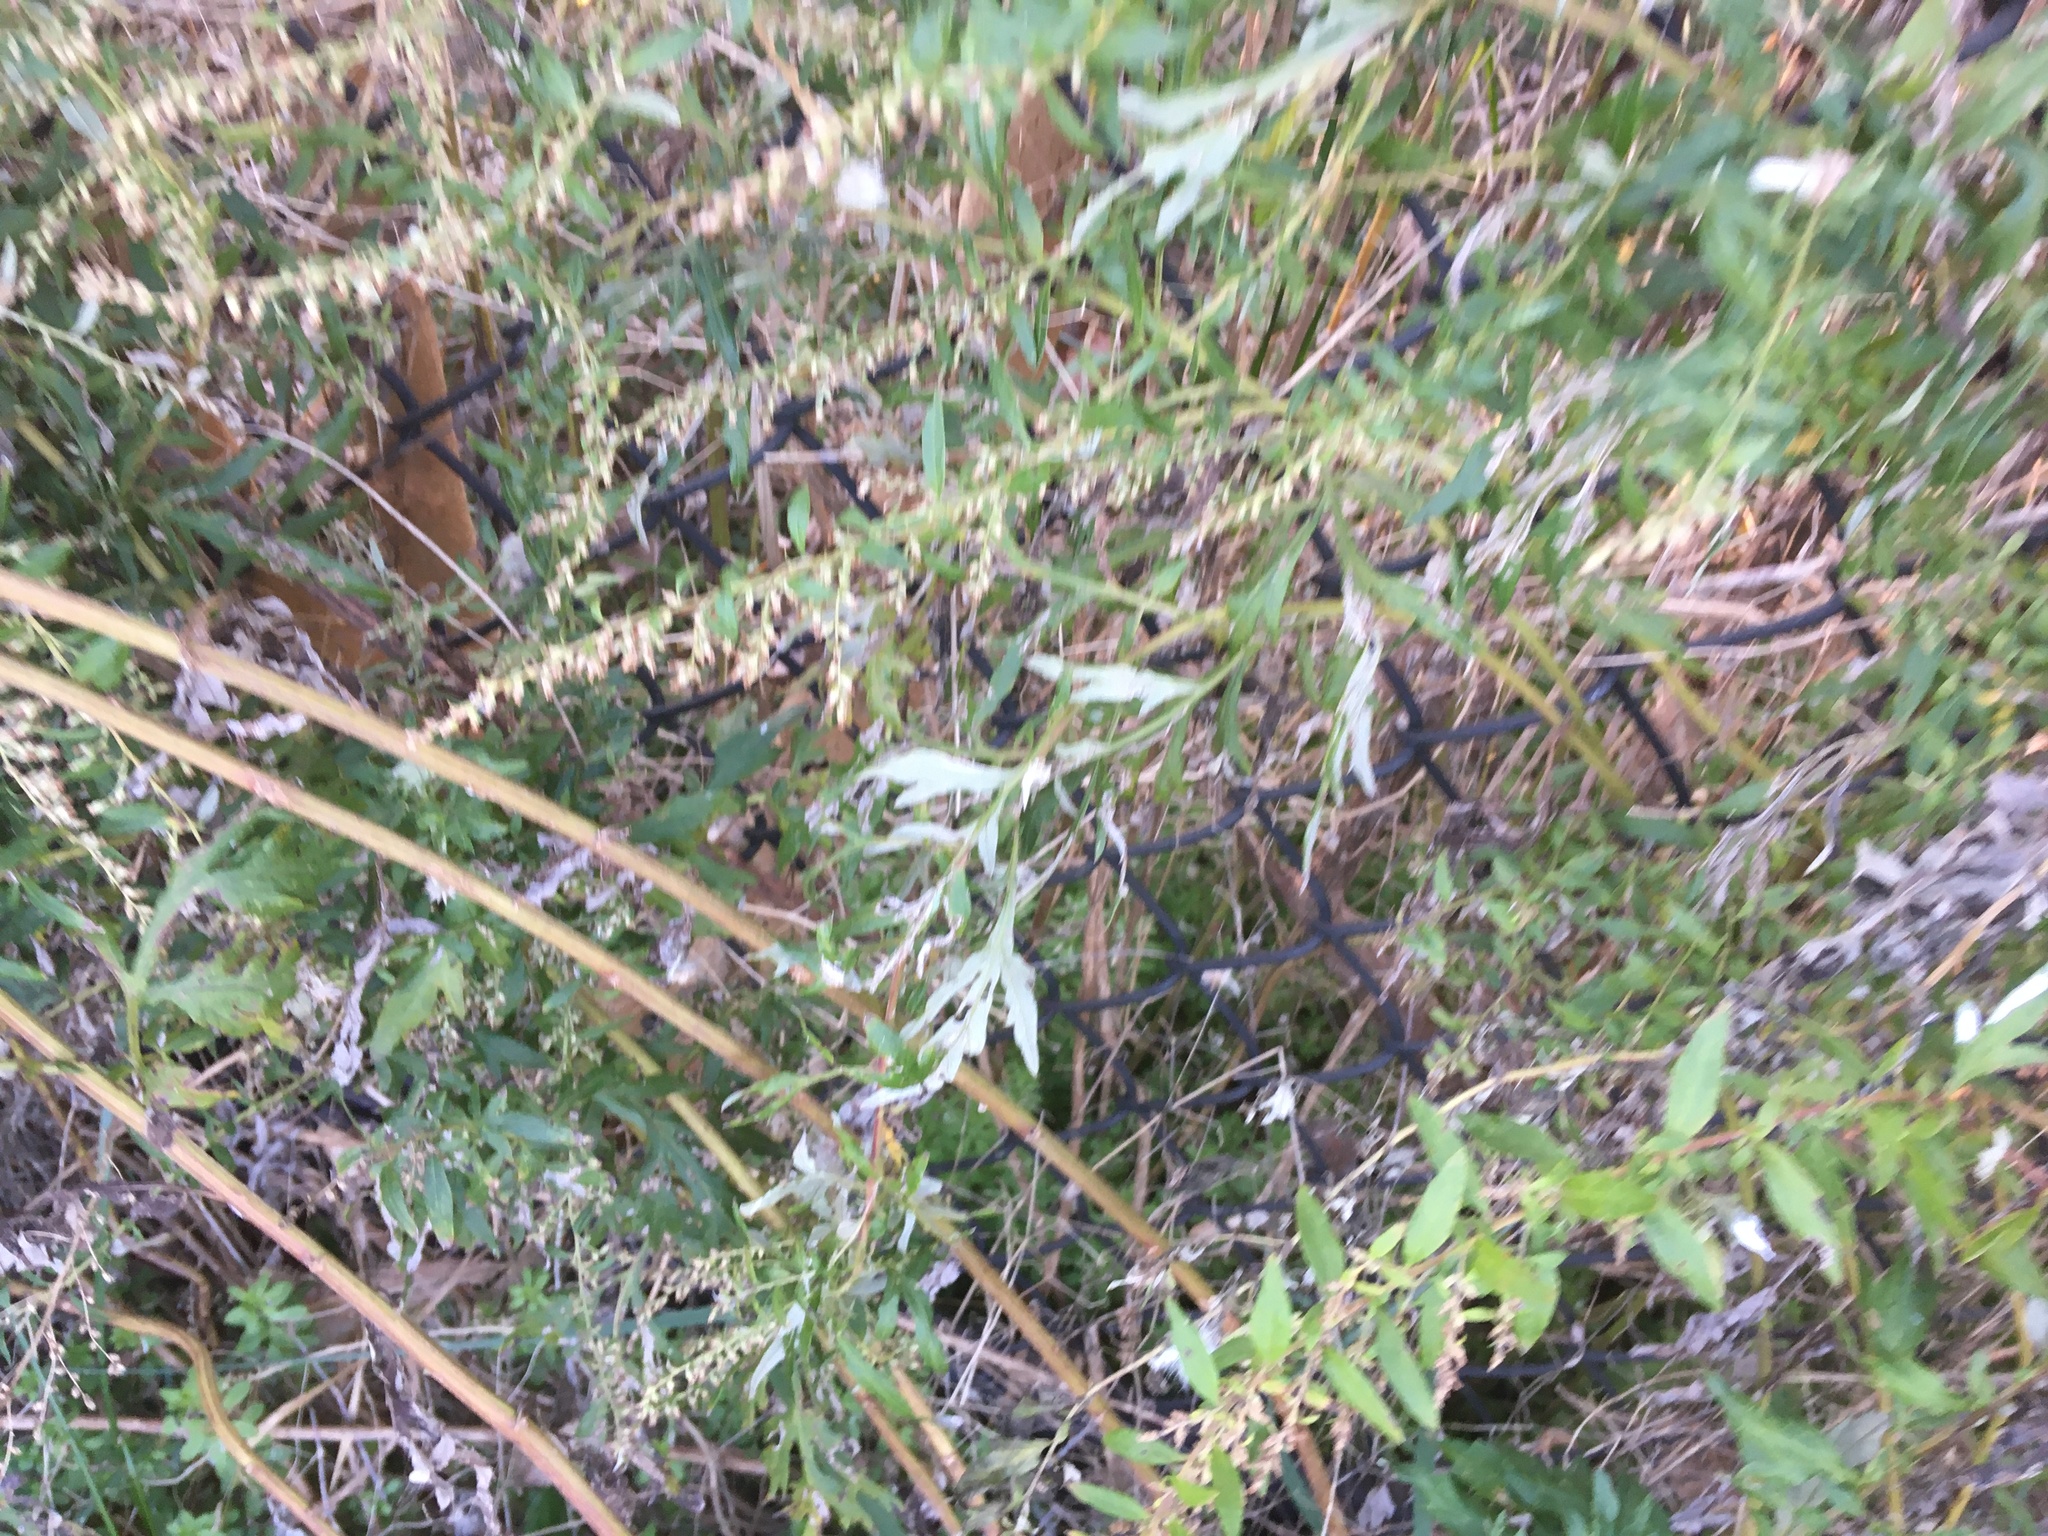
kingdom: Plantae
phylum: Tracheophyta
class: Magnoliopsida
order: Asterales
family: Asteraceae
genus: Artemisia
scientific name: Artemisia vulgaris
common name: Mugwort
